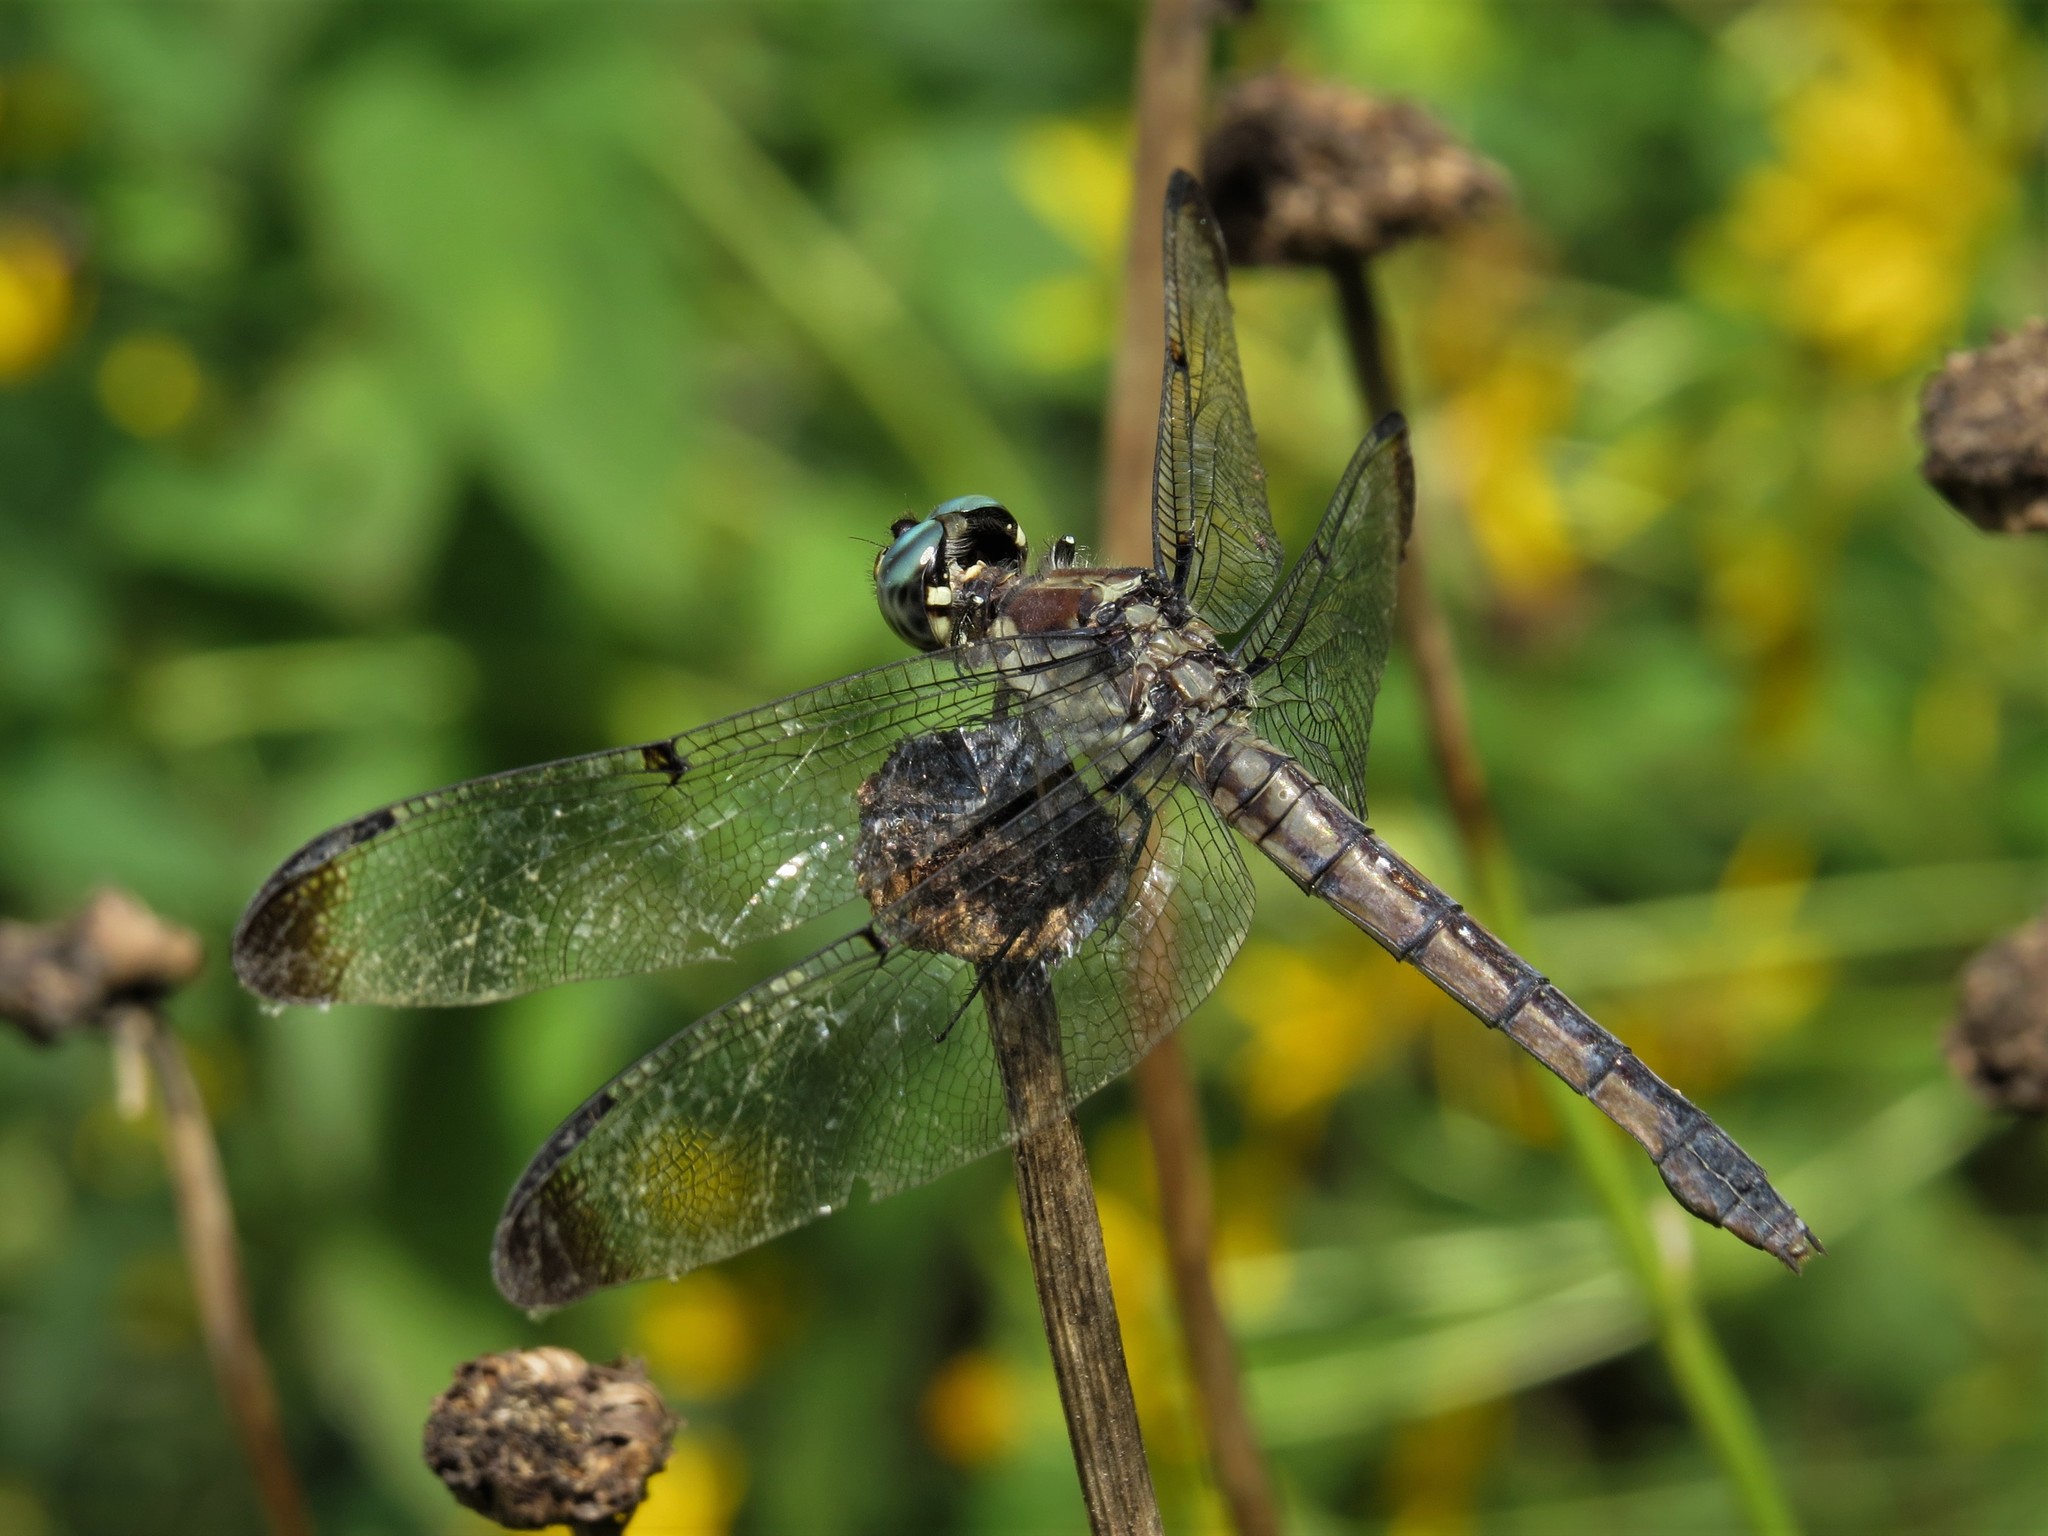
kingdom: Animalia
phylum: Arthropoda
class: Insecta
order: Odonata
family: Libellulidae
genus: Libellula
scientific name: Libellula vibrans
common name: Great blue skimmer
